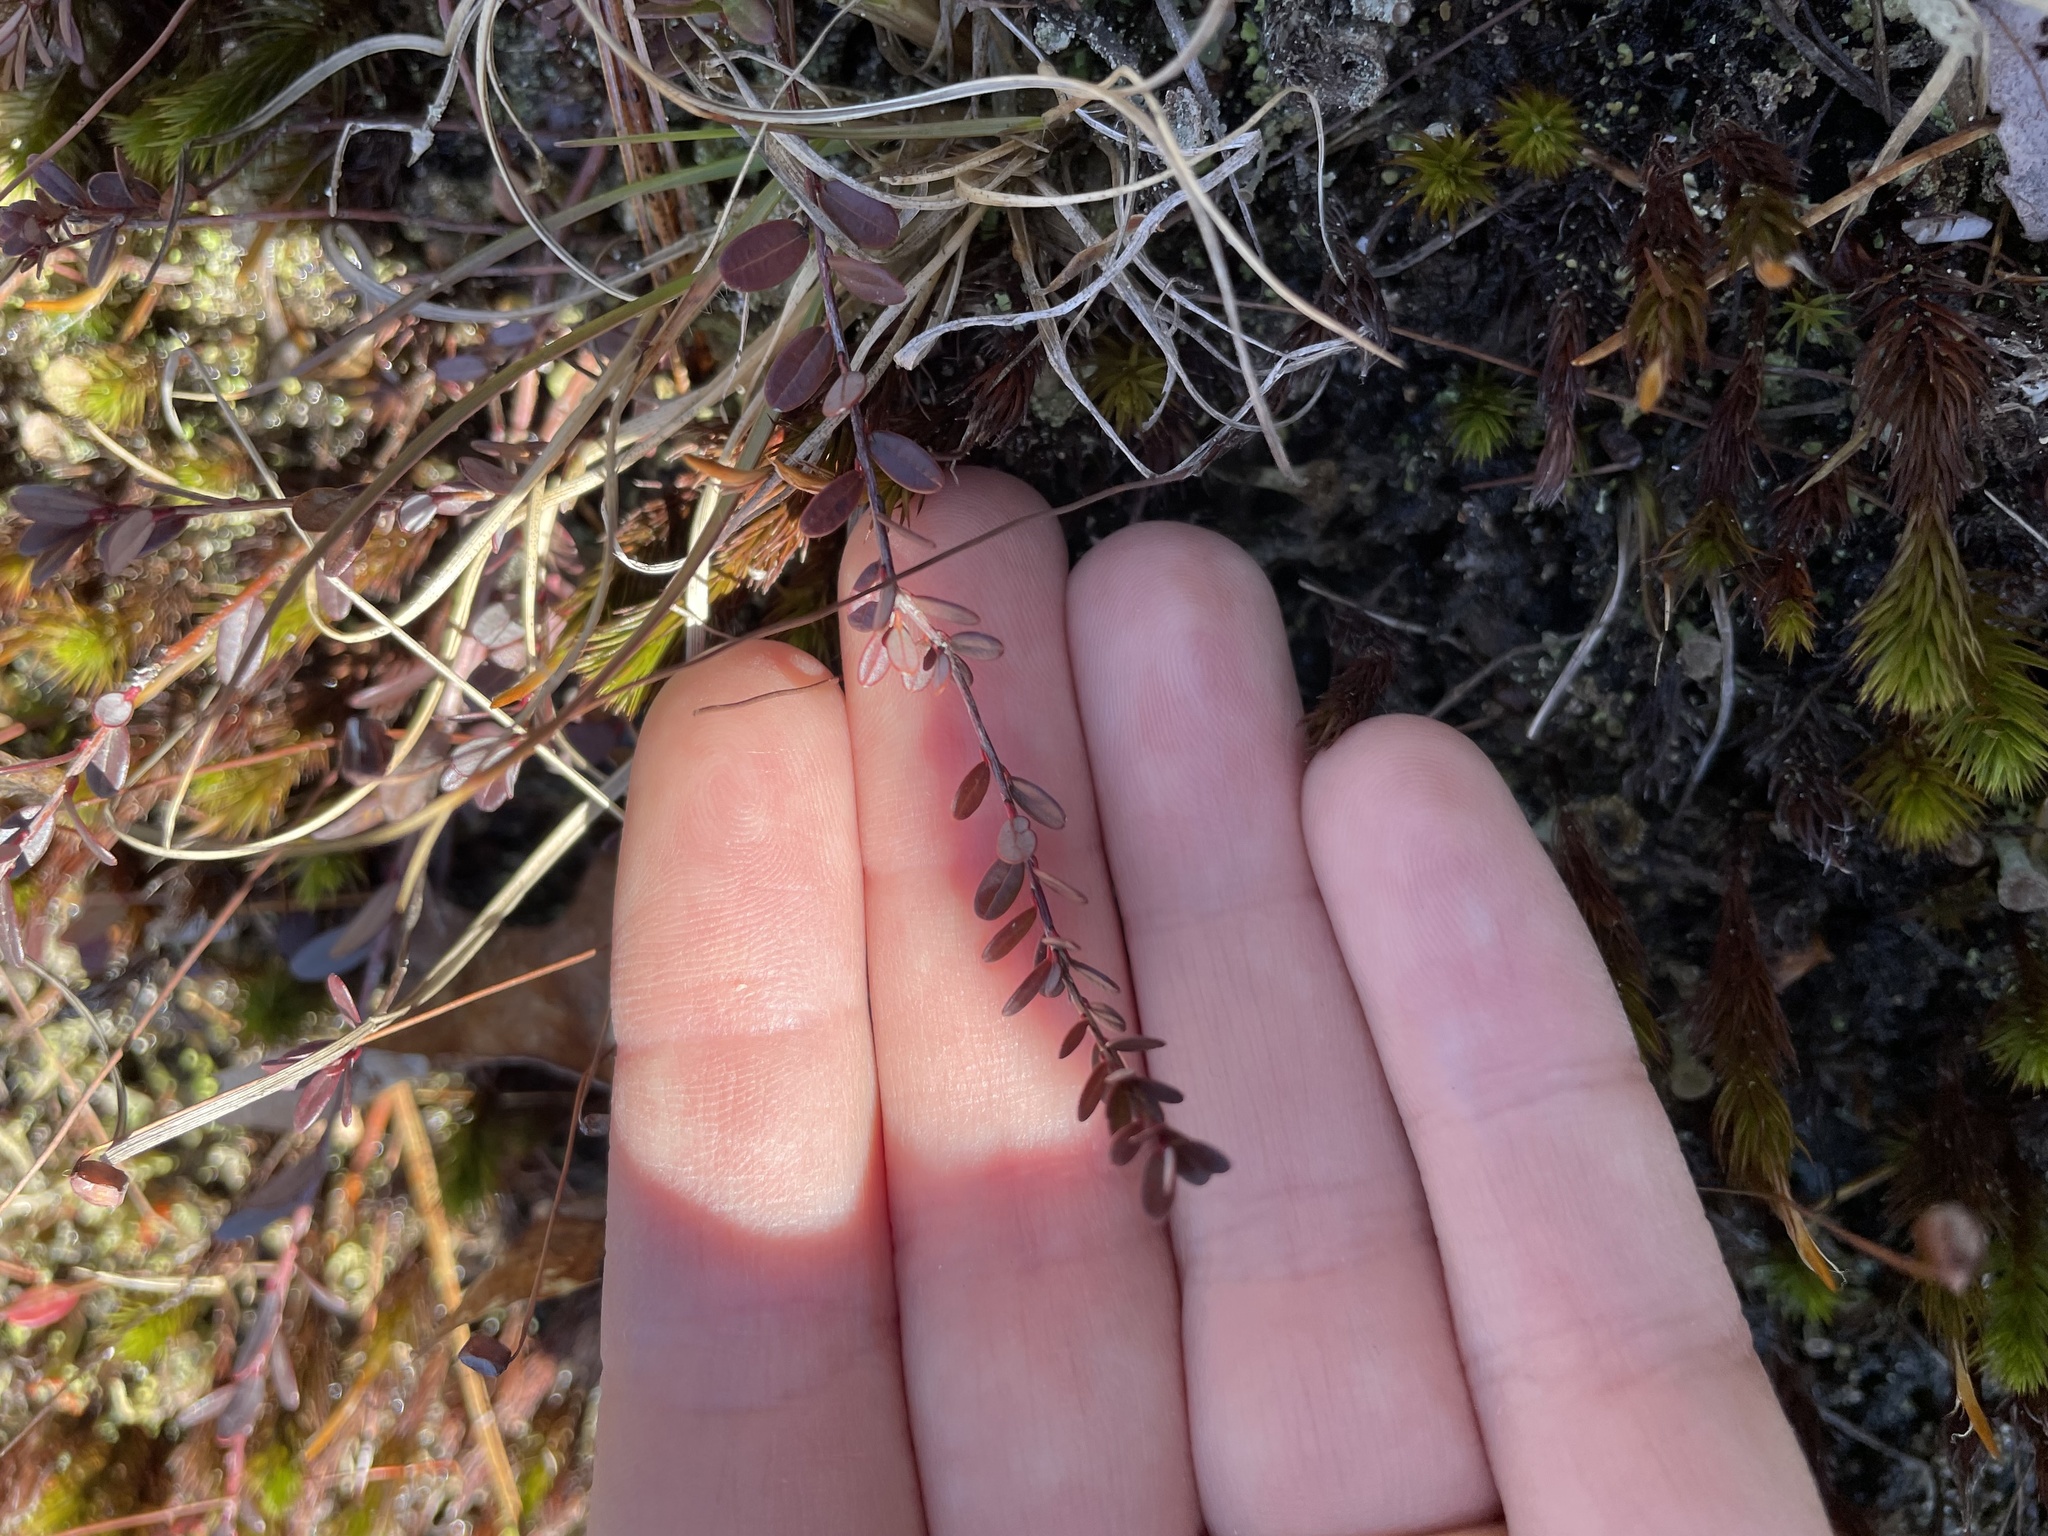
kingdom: Plantae
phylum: Tracheophyta
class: Magnoliopsida
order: Ericales
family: Ericaceae
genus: Vaccinium
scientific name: Vaccinium macrocarpon
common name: American cranberry
